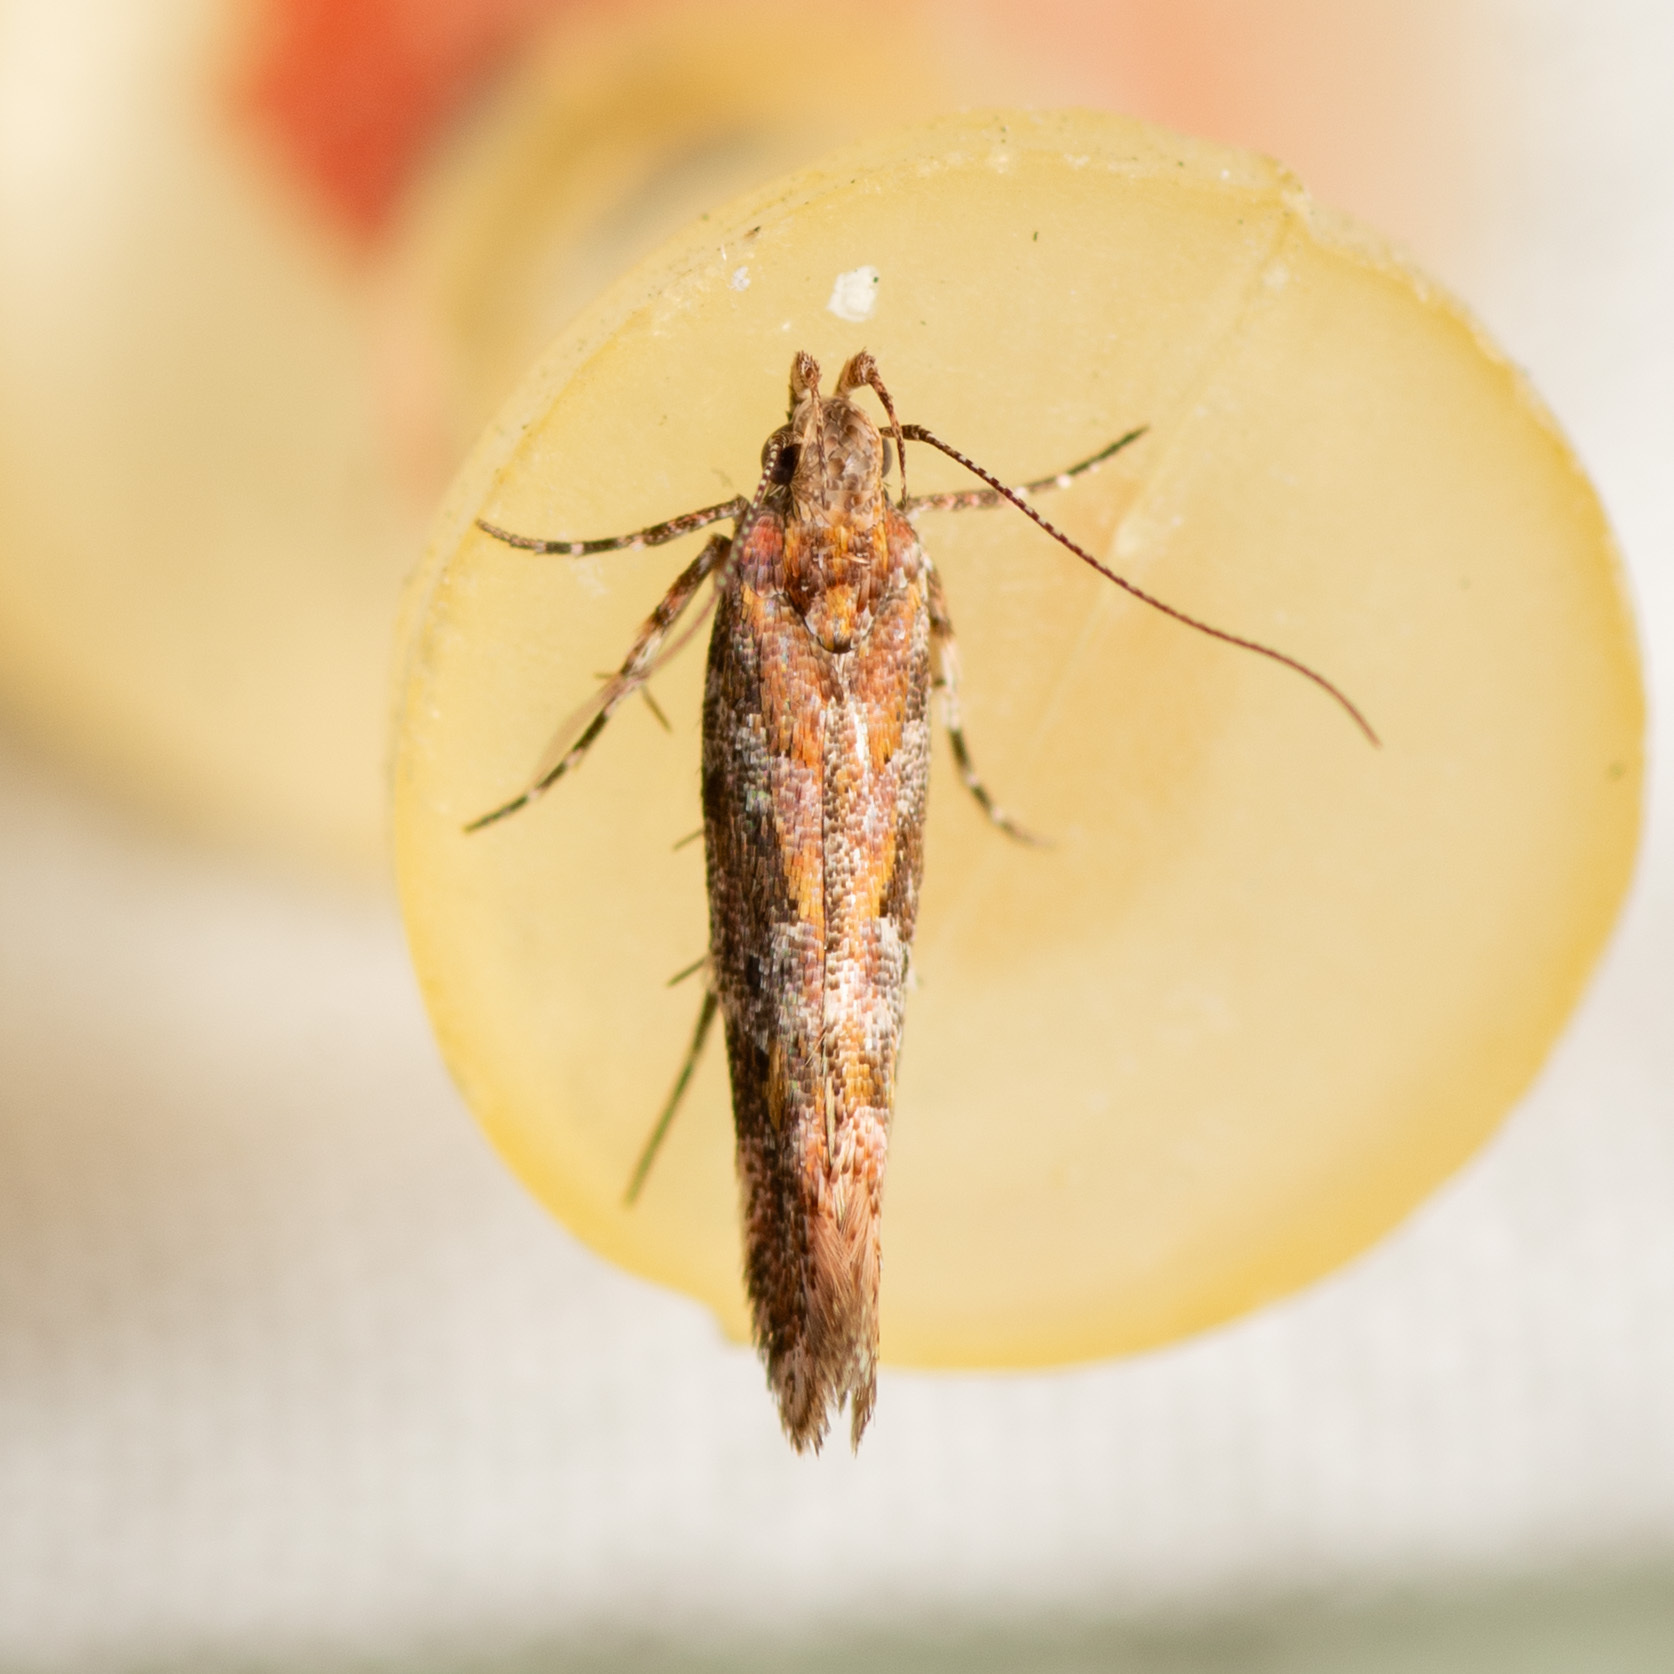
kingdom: Animalia
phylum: Arthropoda
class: Insecta
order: Lepidoptera
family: Gelechiidae
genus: Aristotelia
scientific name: Aristotelia rubidella
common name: Ruby aristotelia moth
